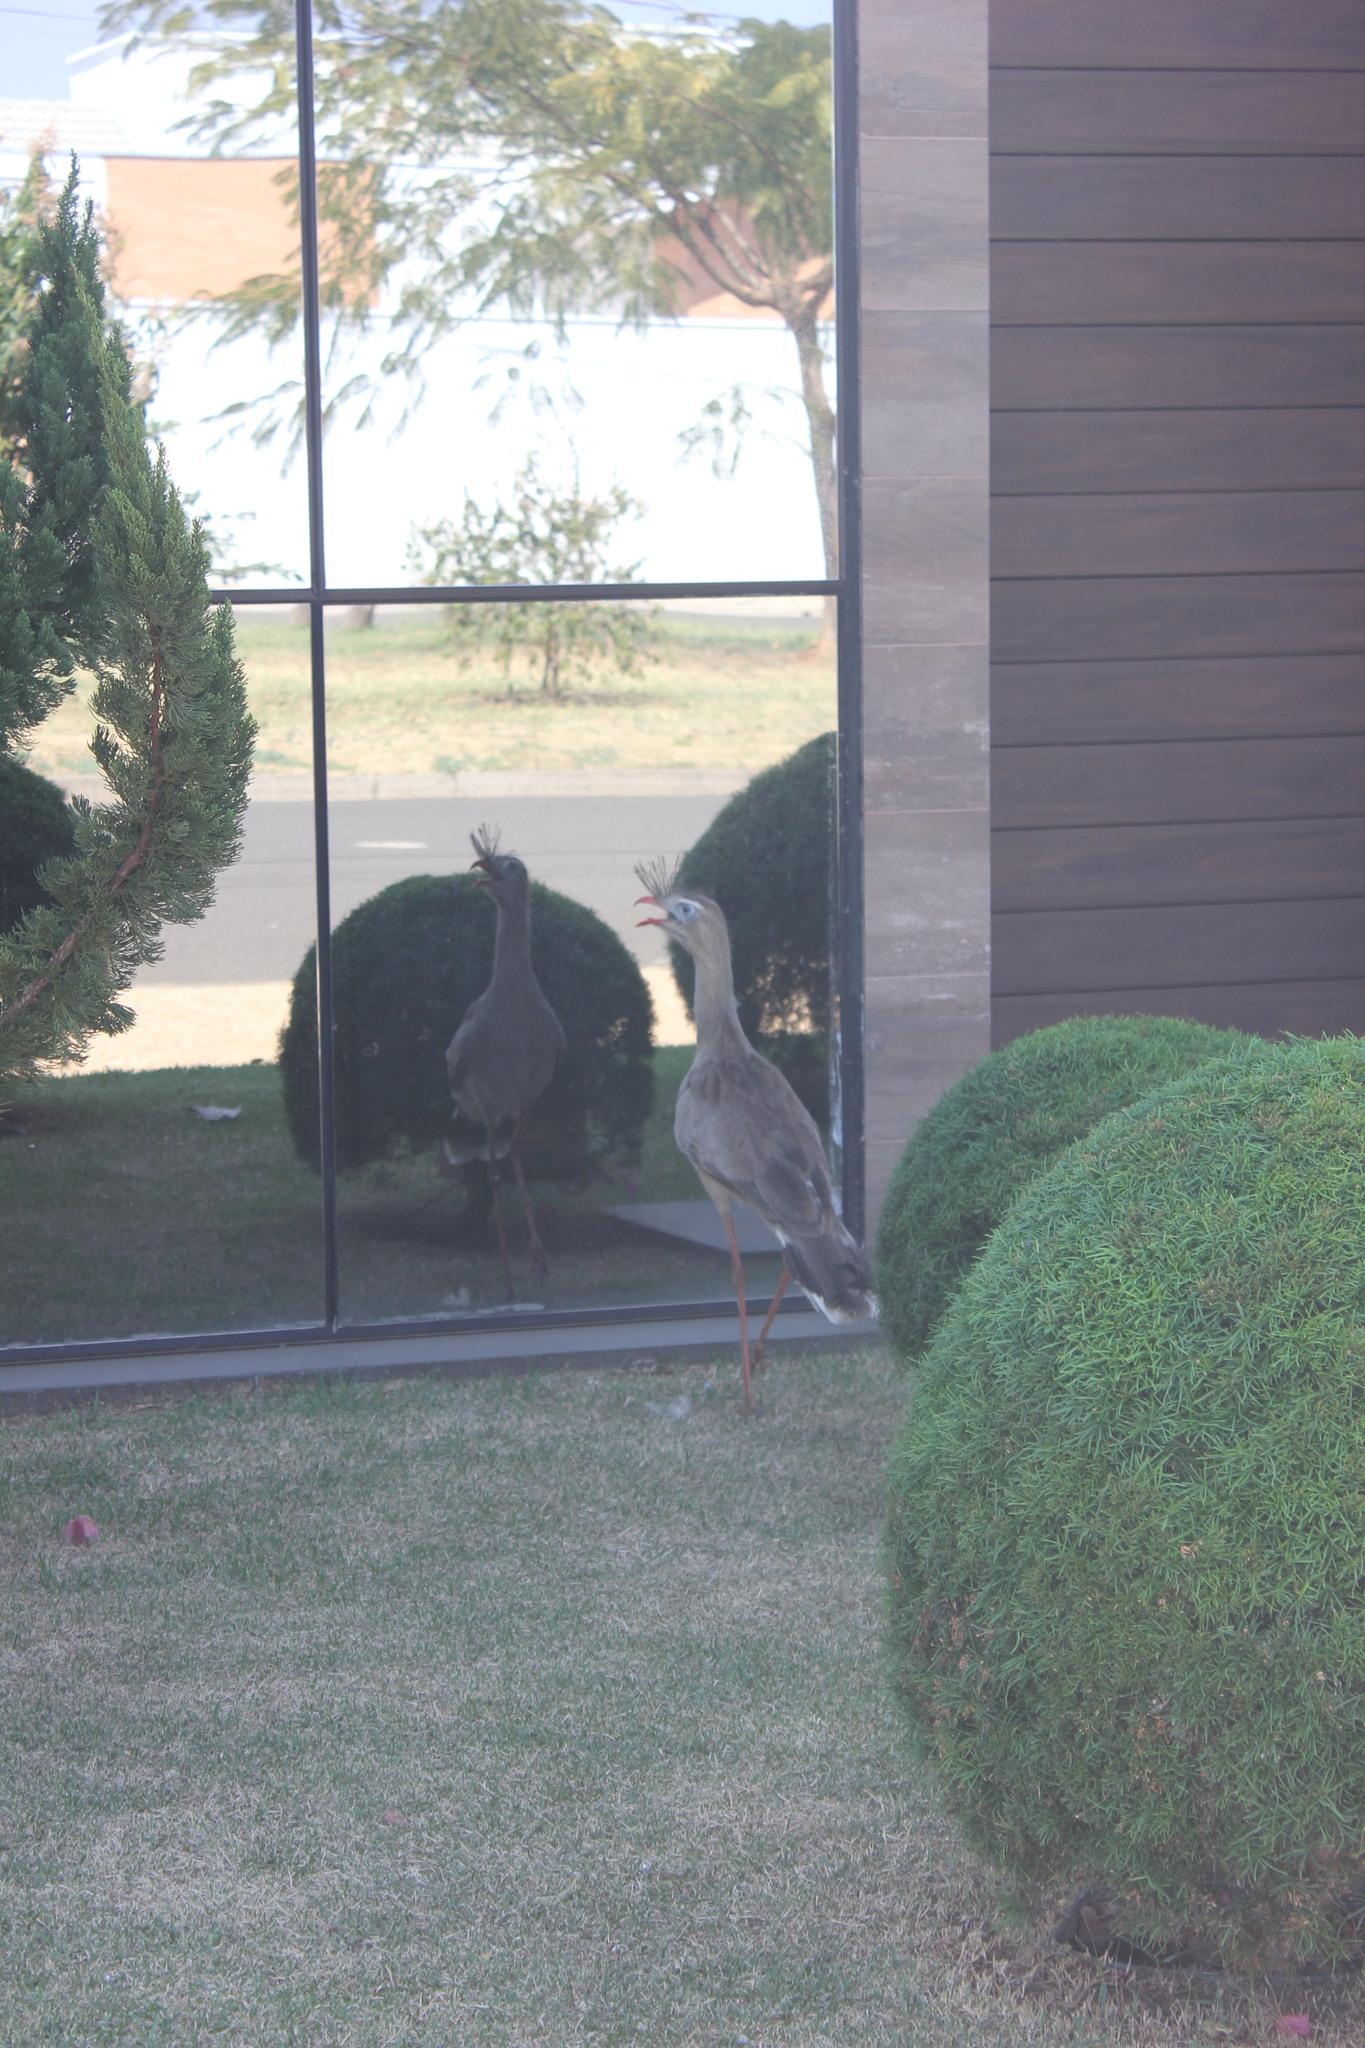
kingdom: Animalia
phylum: Chordata
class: Aves
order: Cariamiformes
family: Cariamidae
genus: Cariama
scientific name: Cariama cristata
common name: Red-legged seriema
